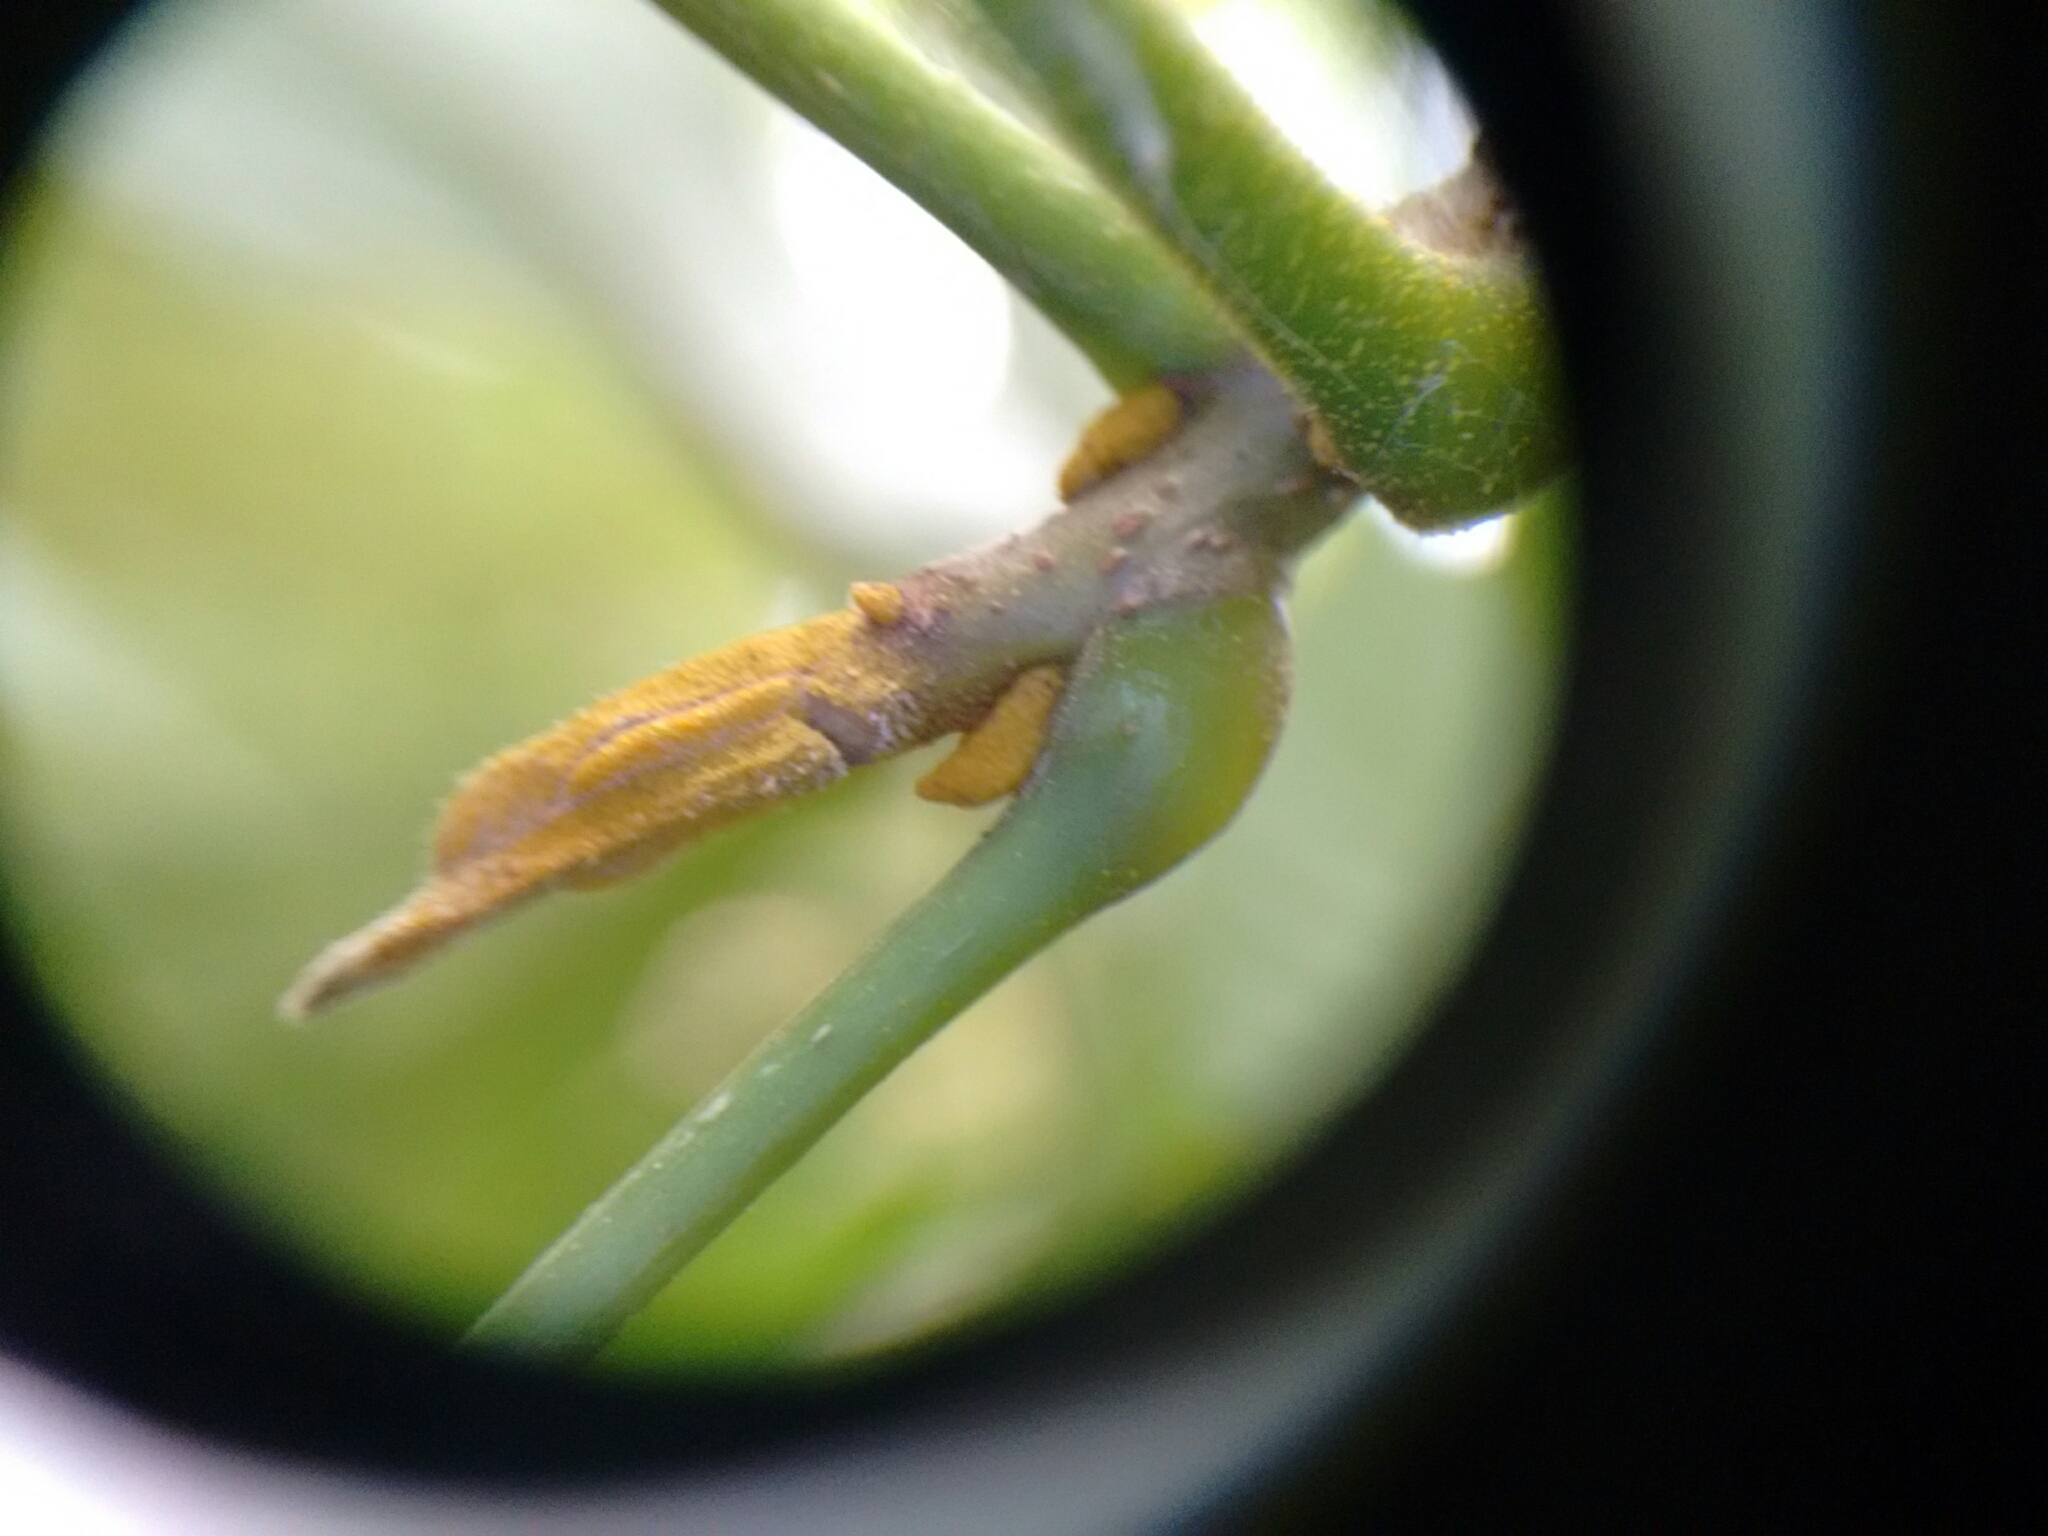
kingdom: Plantae
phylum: Tracheophyta
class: Magnoliopsida
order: Fagales
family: Juglandaceae
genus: Carya
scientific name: Carya cordiformis
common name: Bitternut hickory
